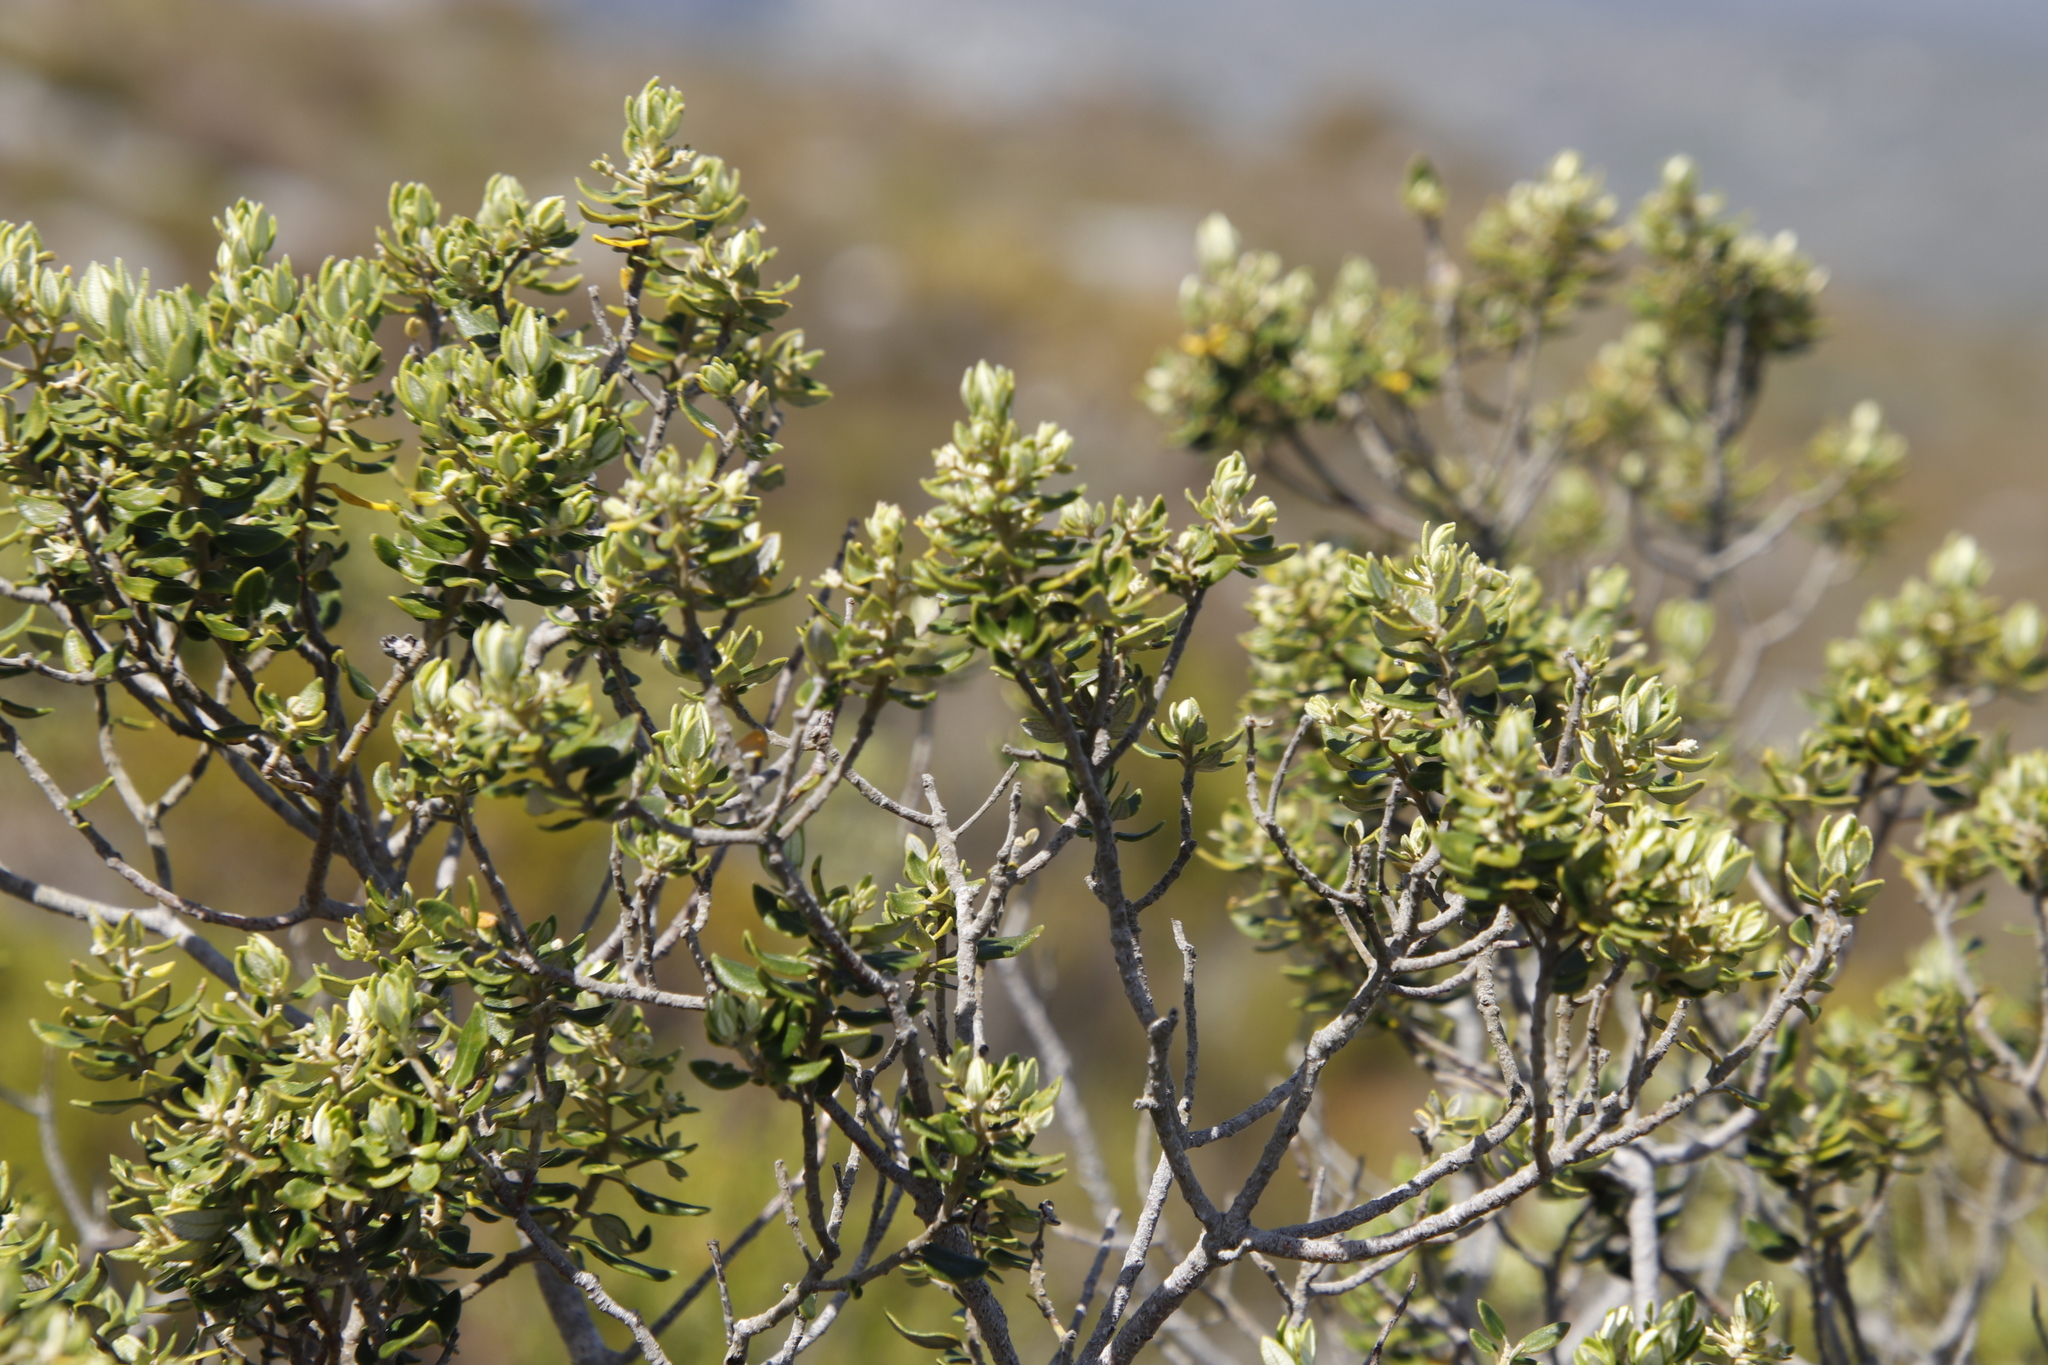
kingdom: Plantae
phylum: Tracheophyta
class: Magnoliopsida
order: Rosales
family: Rhamnaceae
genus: Phylica
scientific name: Phylica buxifolia
